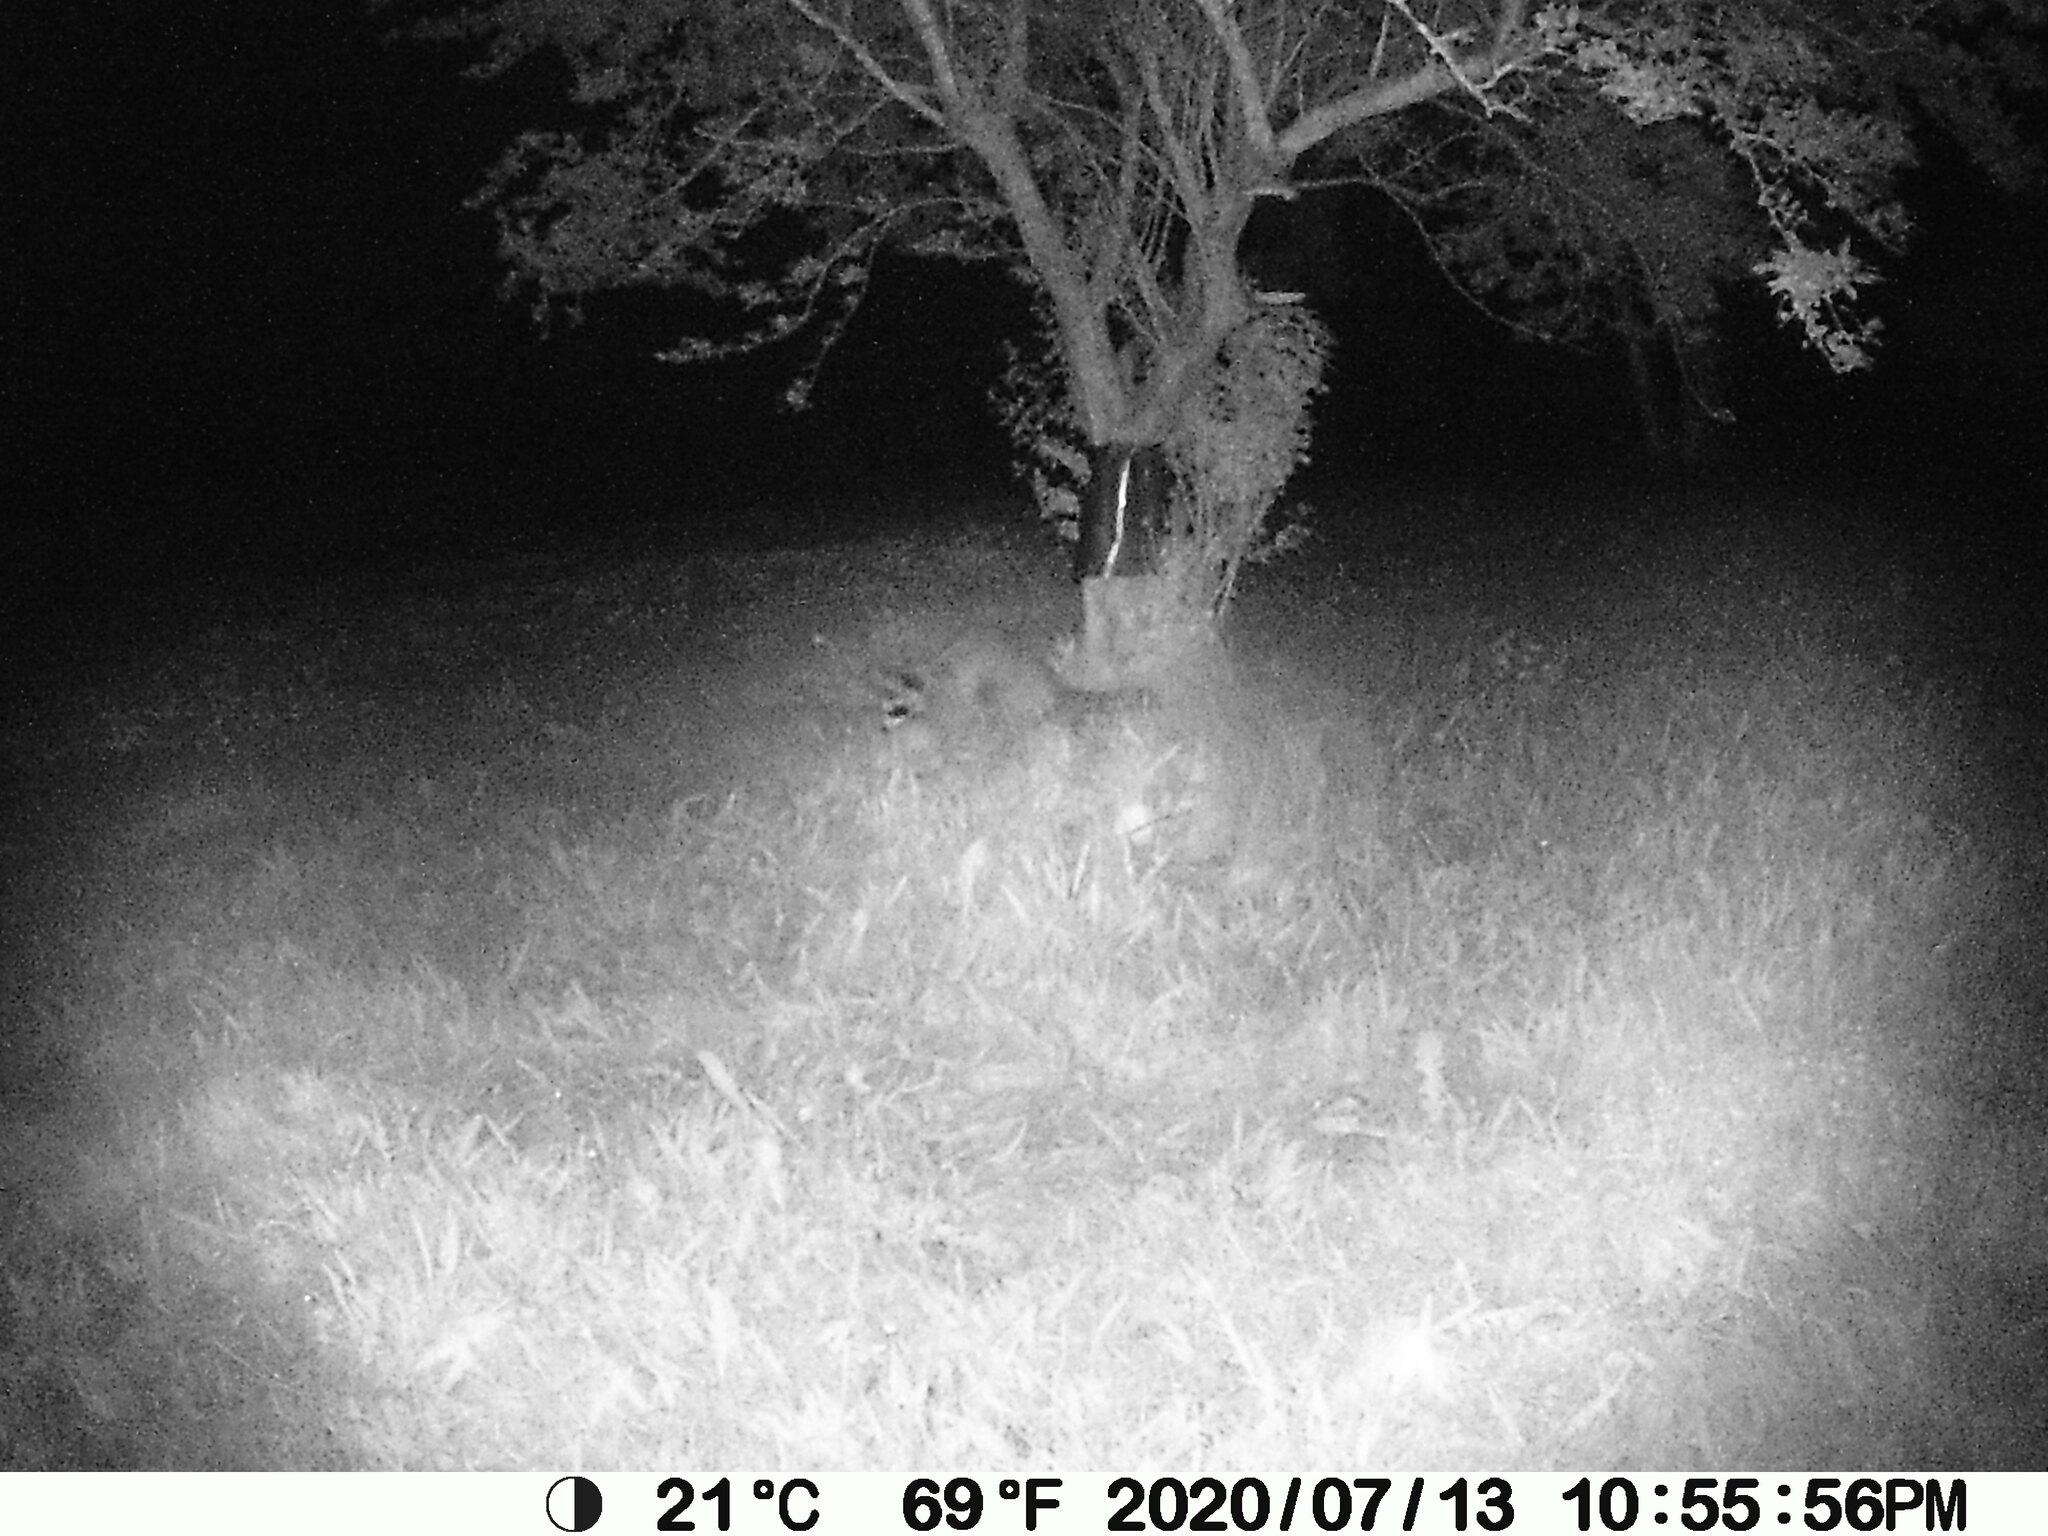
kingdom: Animalia
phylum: Chordata
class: Mammalia
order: Carnivora
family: Procyonidae
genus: Procyon
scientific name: Procyon lotor
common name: Raccoon
